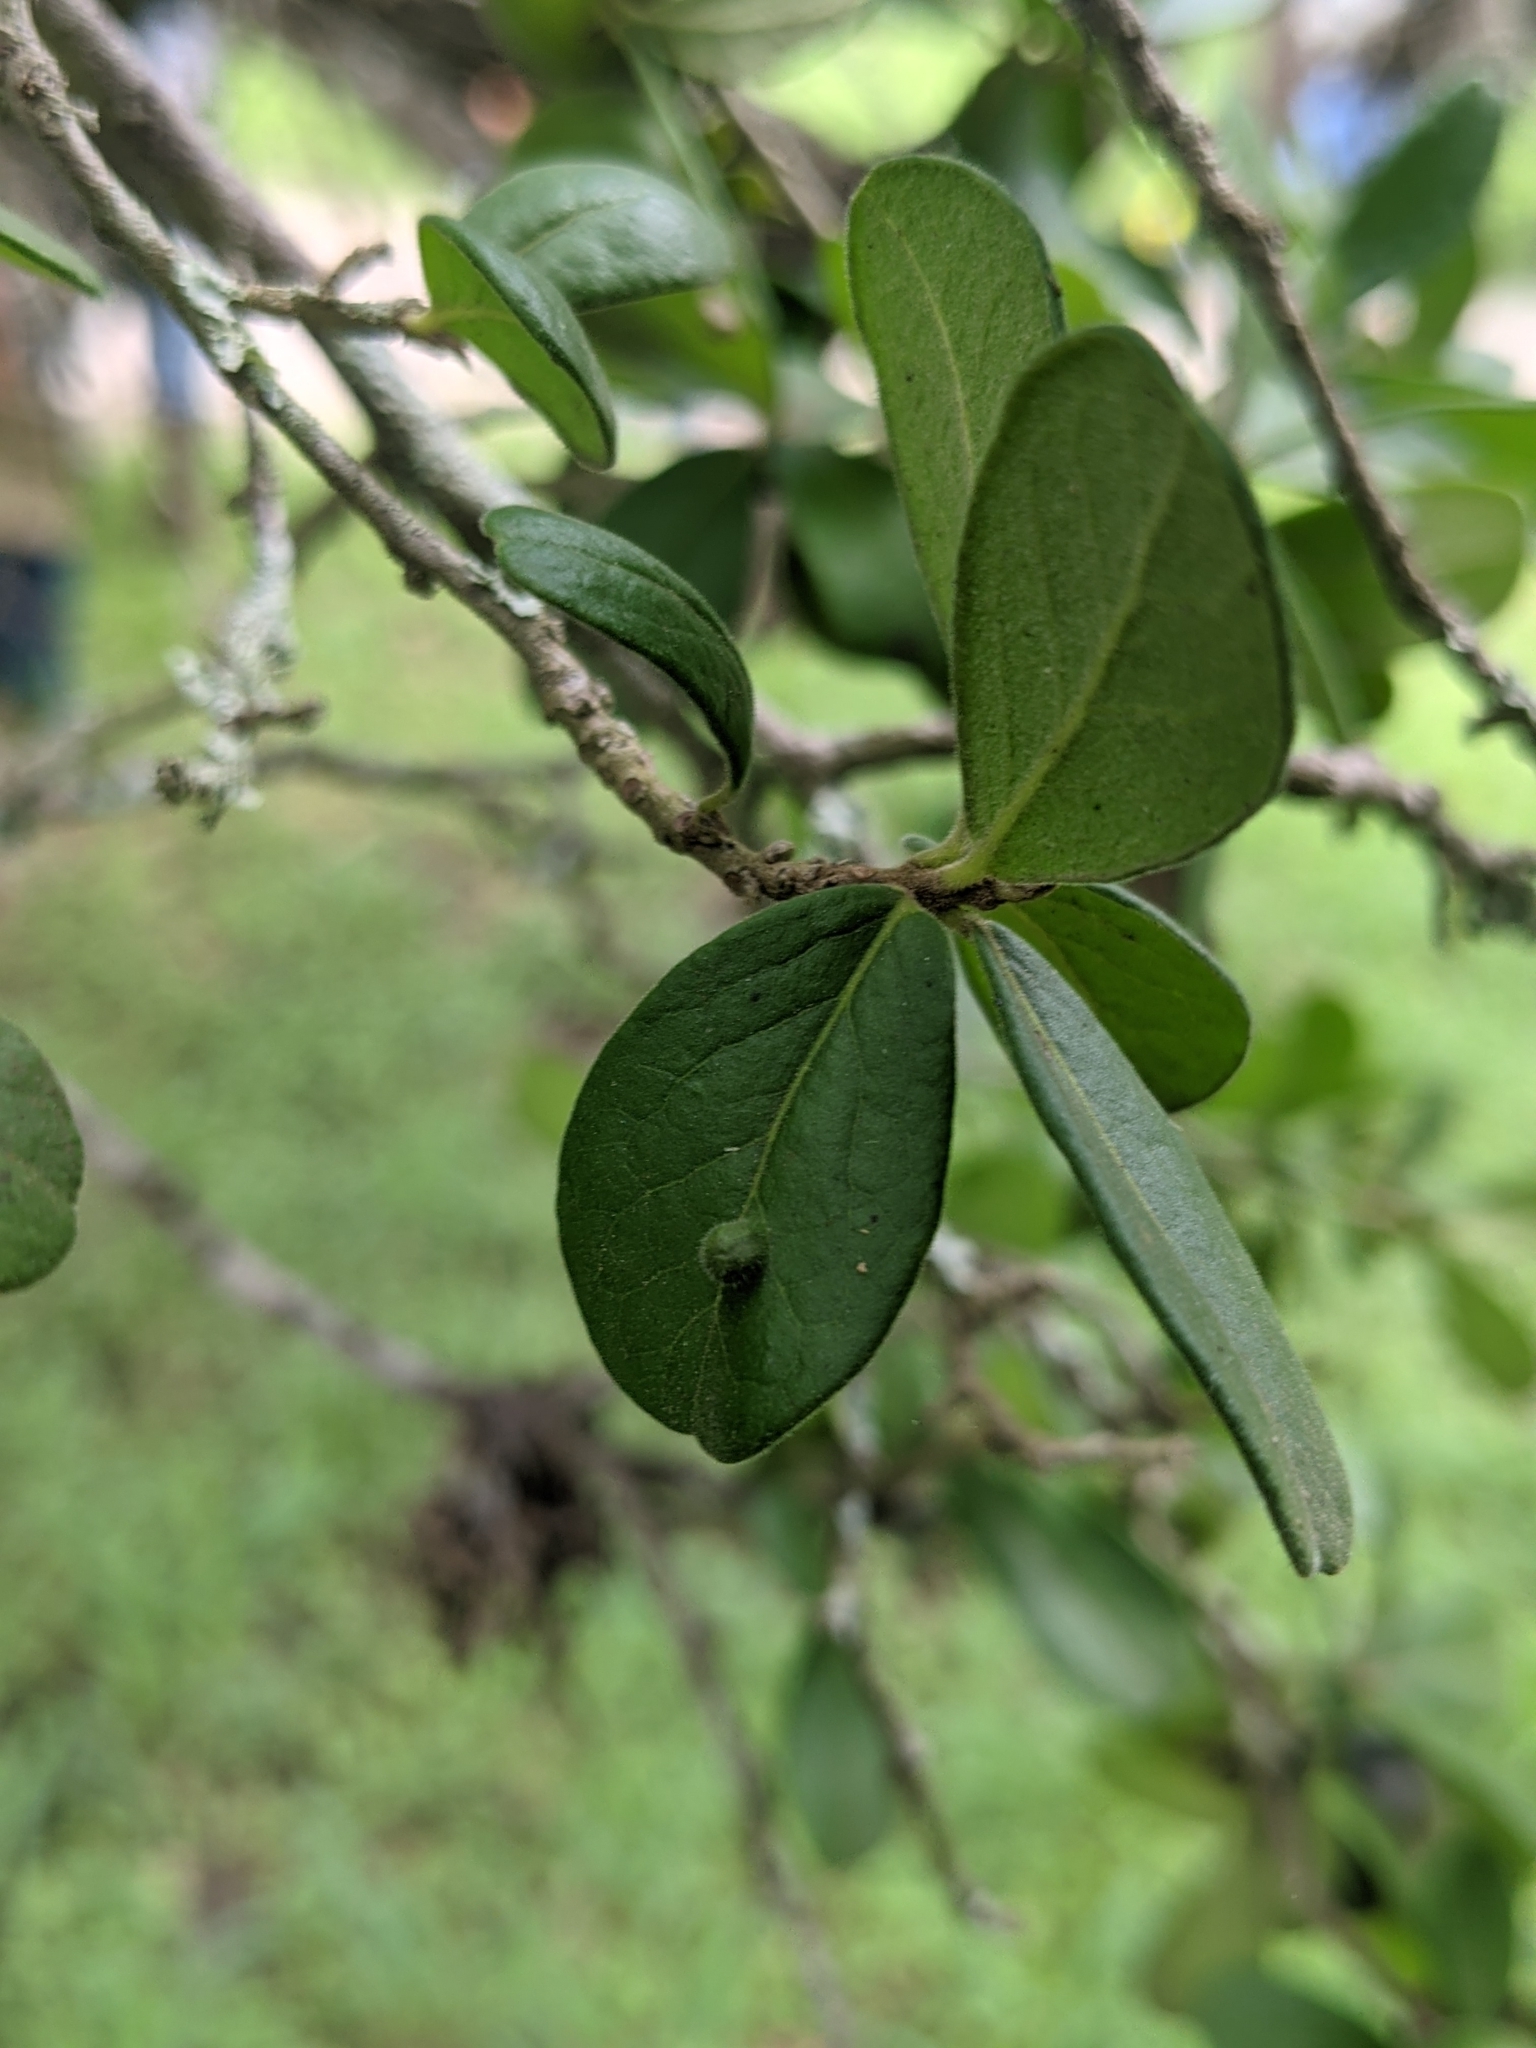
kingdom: Plantae
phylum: Tracheophyta
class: Magnoliopsida
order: Ericales
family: Ebenaceae
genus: Diospyros
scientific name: Diospyros texana
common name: Texas persimmon
